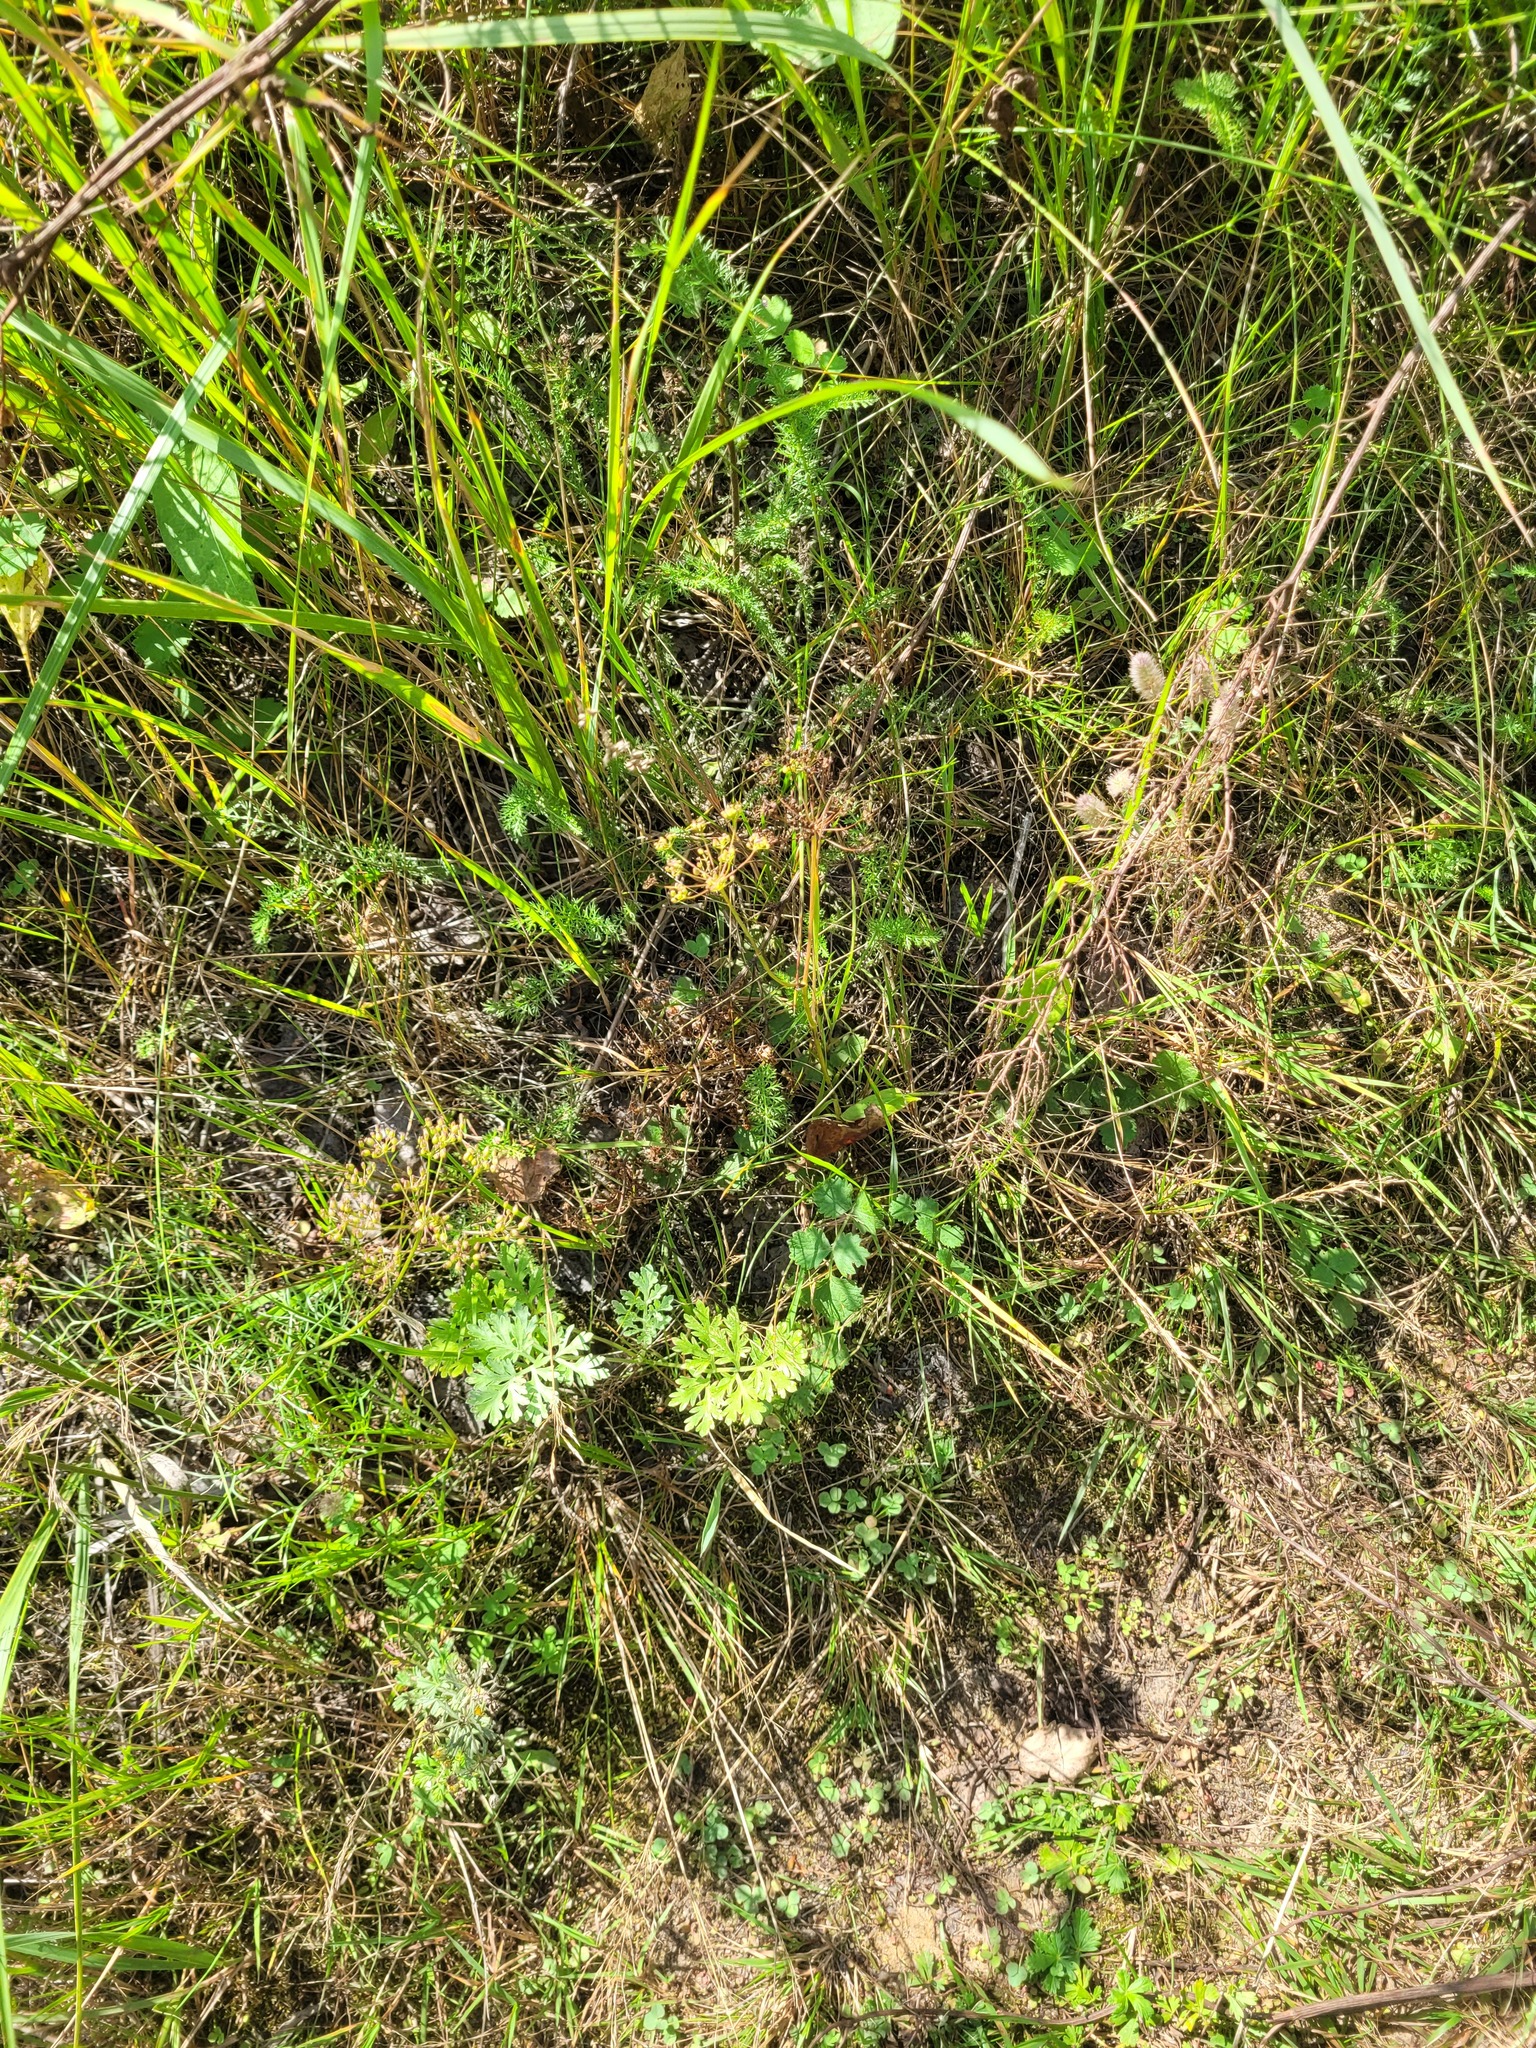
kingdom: Plantae
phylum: Tracheophyta
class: Magnoliopsida
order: Apiales
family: Apiaceae
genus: Pimpinella
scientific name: Pimpinella saxifraga
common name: Burnet-saxifrage
